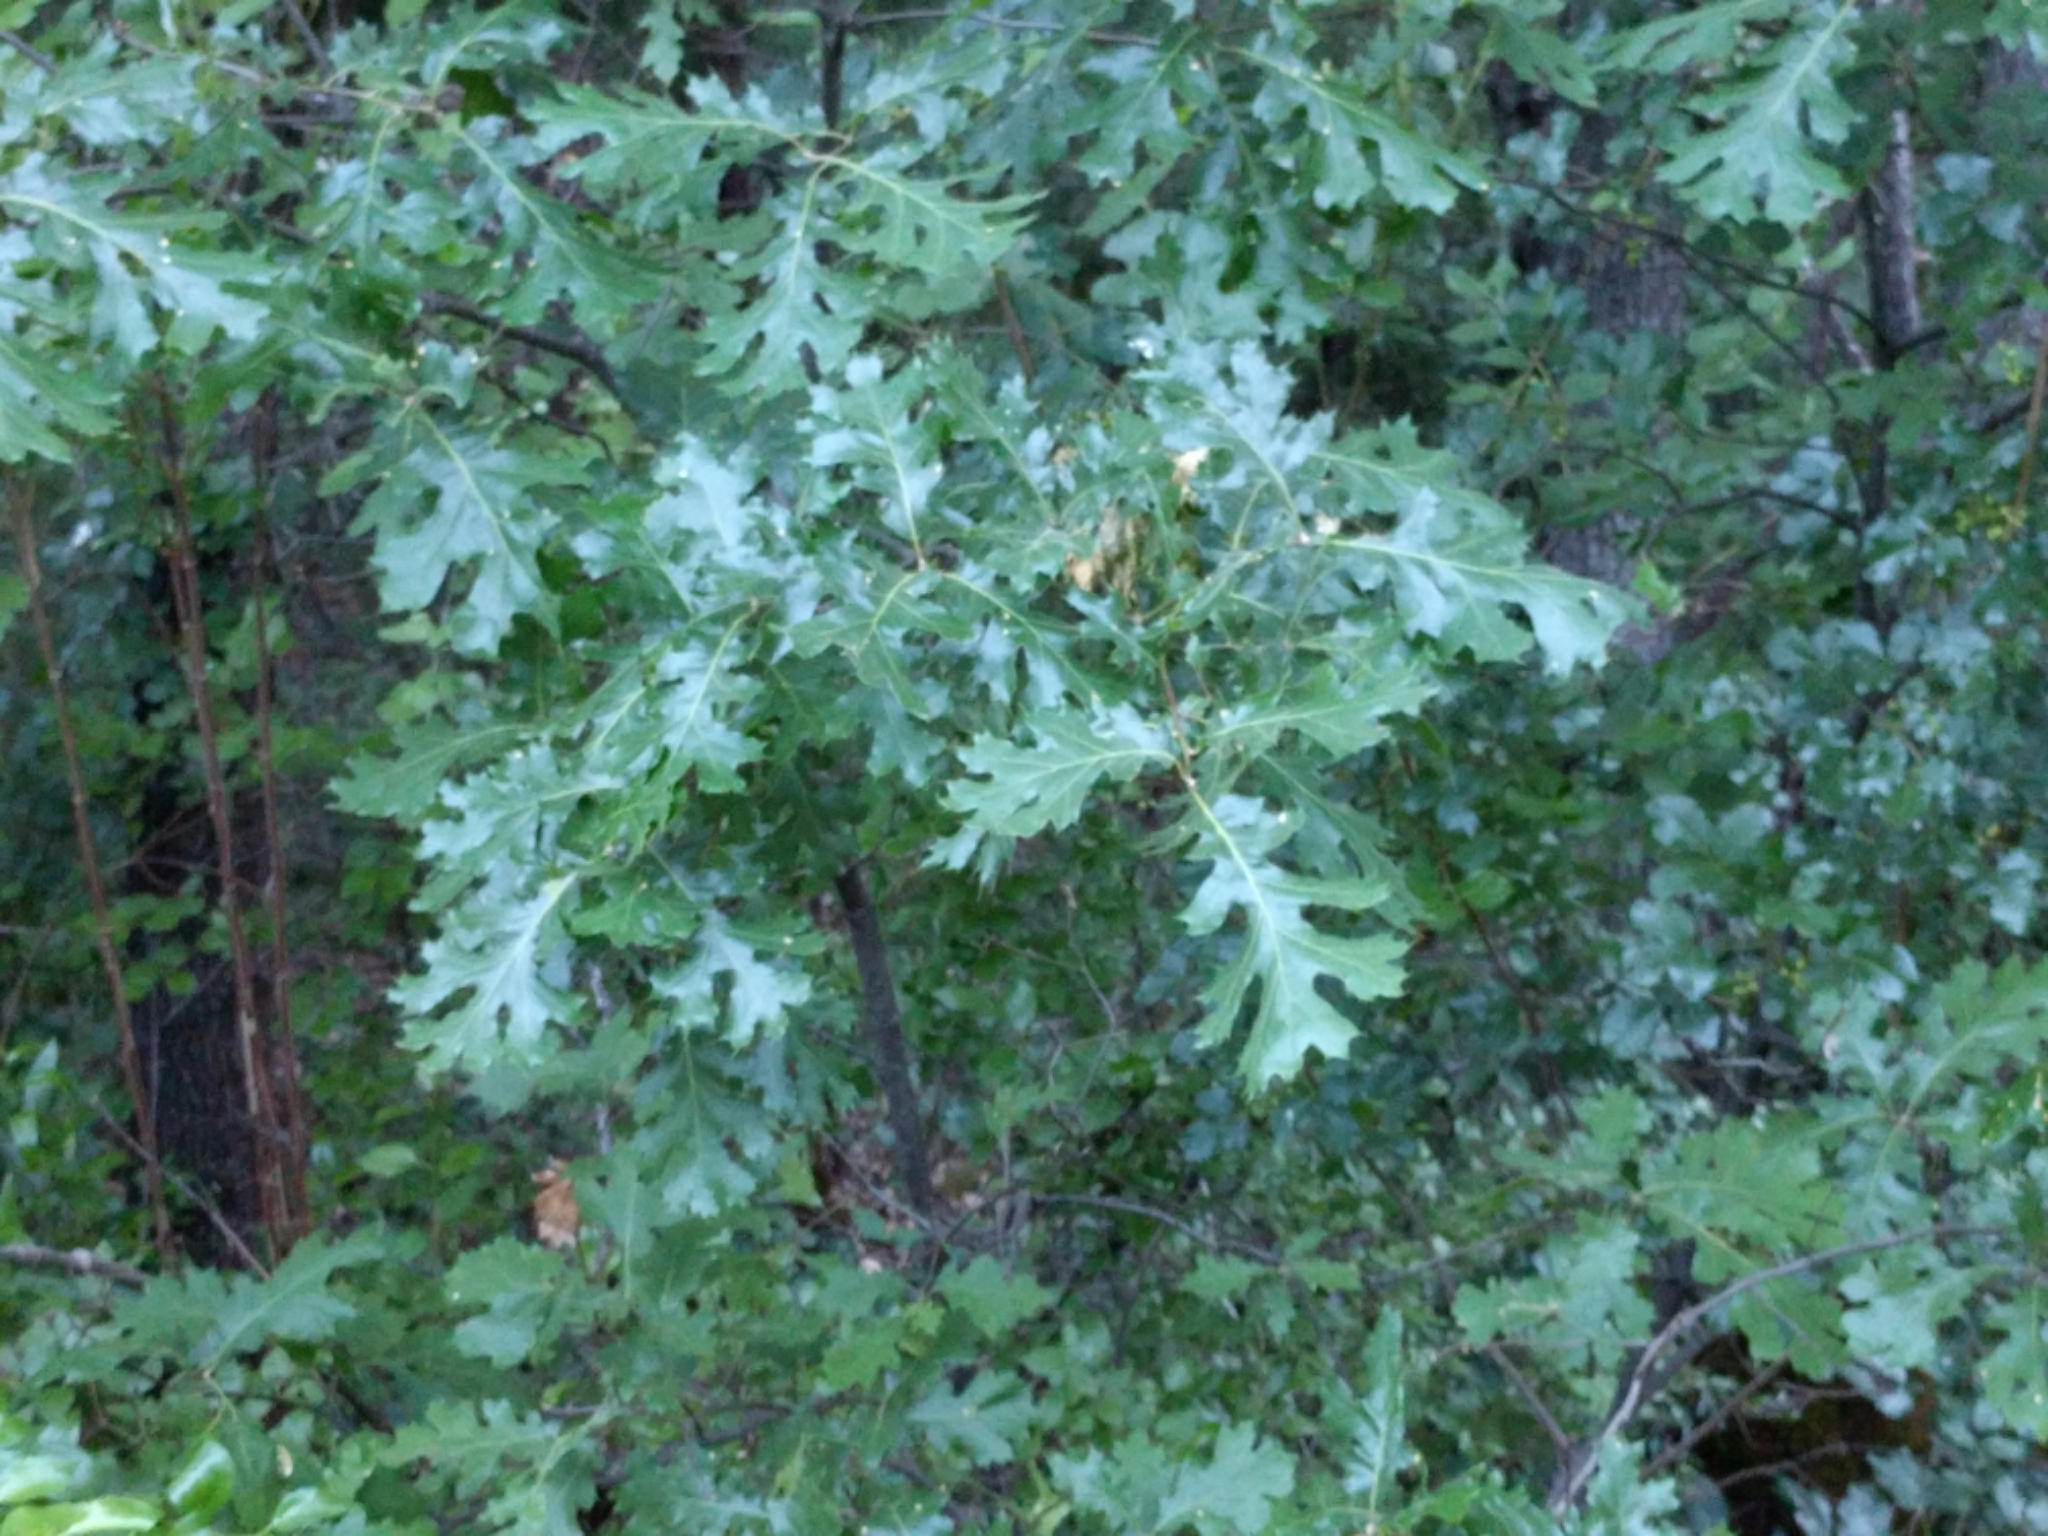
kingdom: Plantae
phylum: Tracheophyta
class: Magnoliopsida
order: Fagales
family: Fagaceae
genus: Quercus
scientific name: Quercus kelloggii
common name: California black oak
